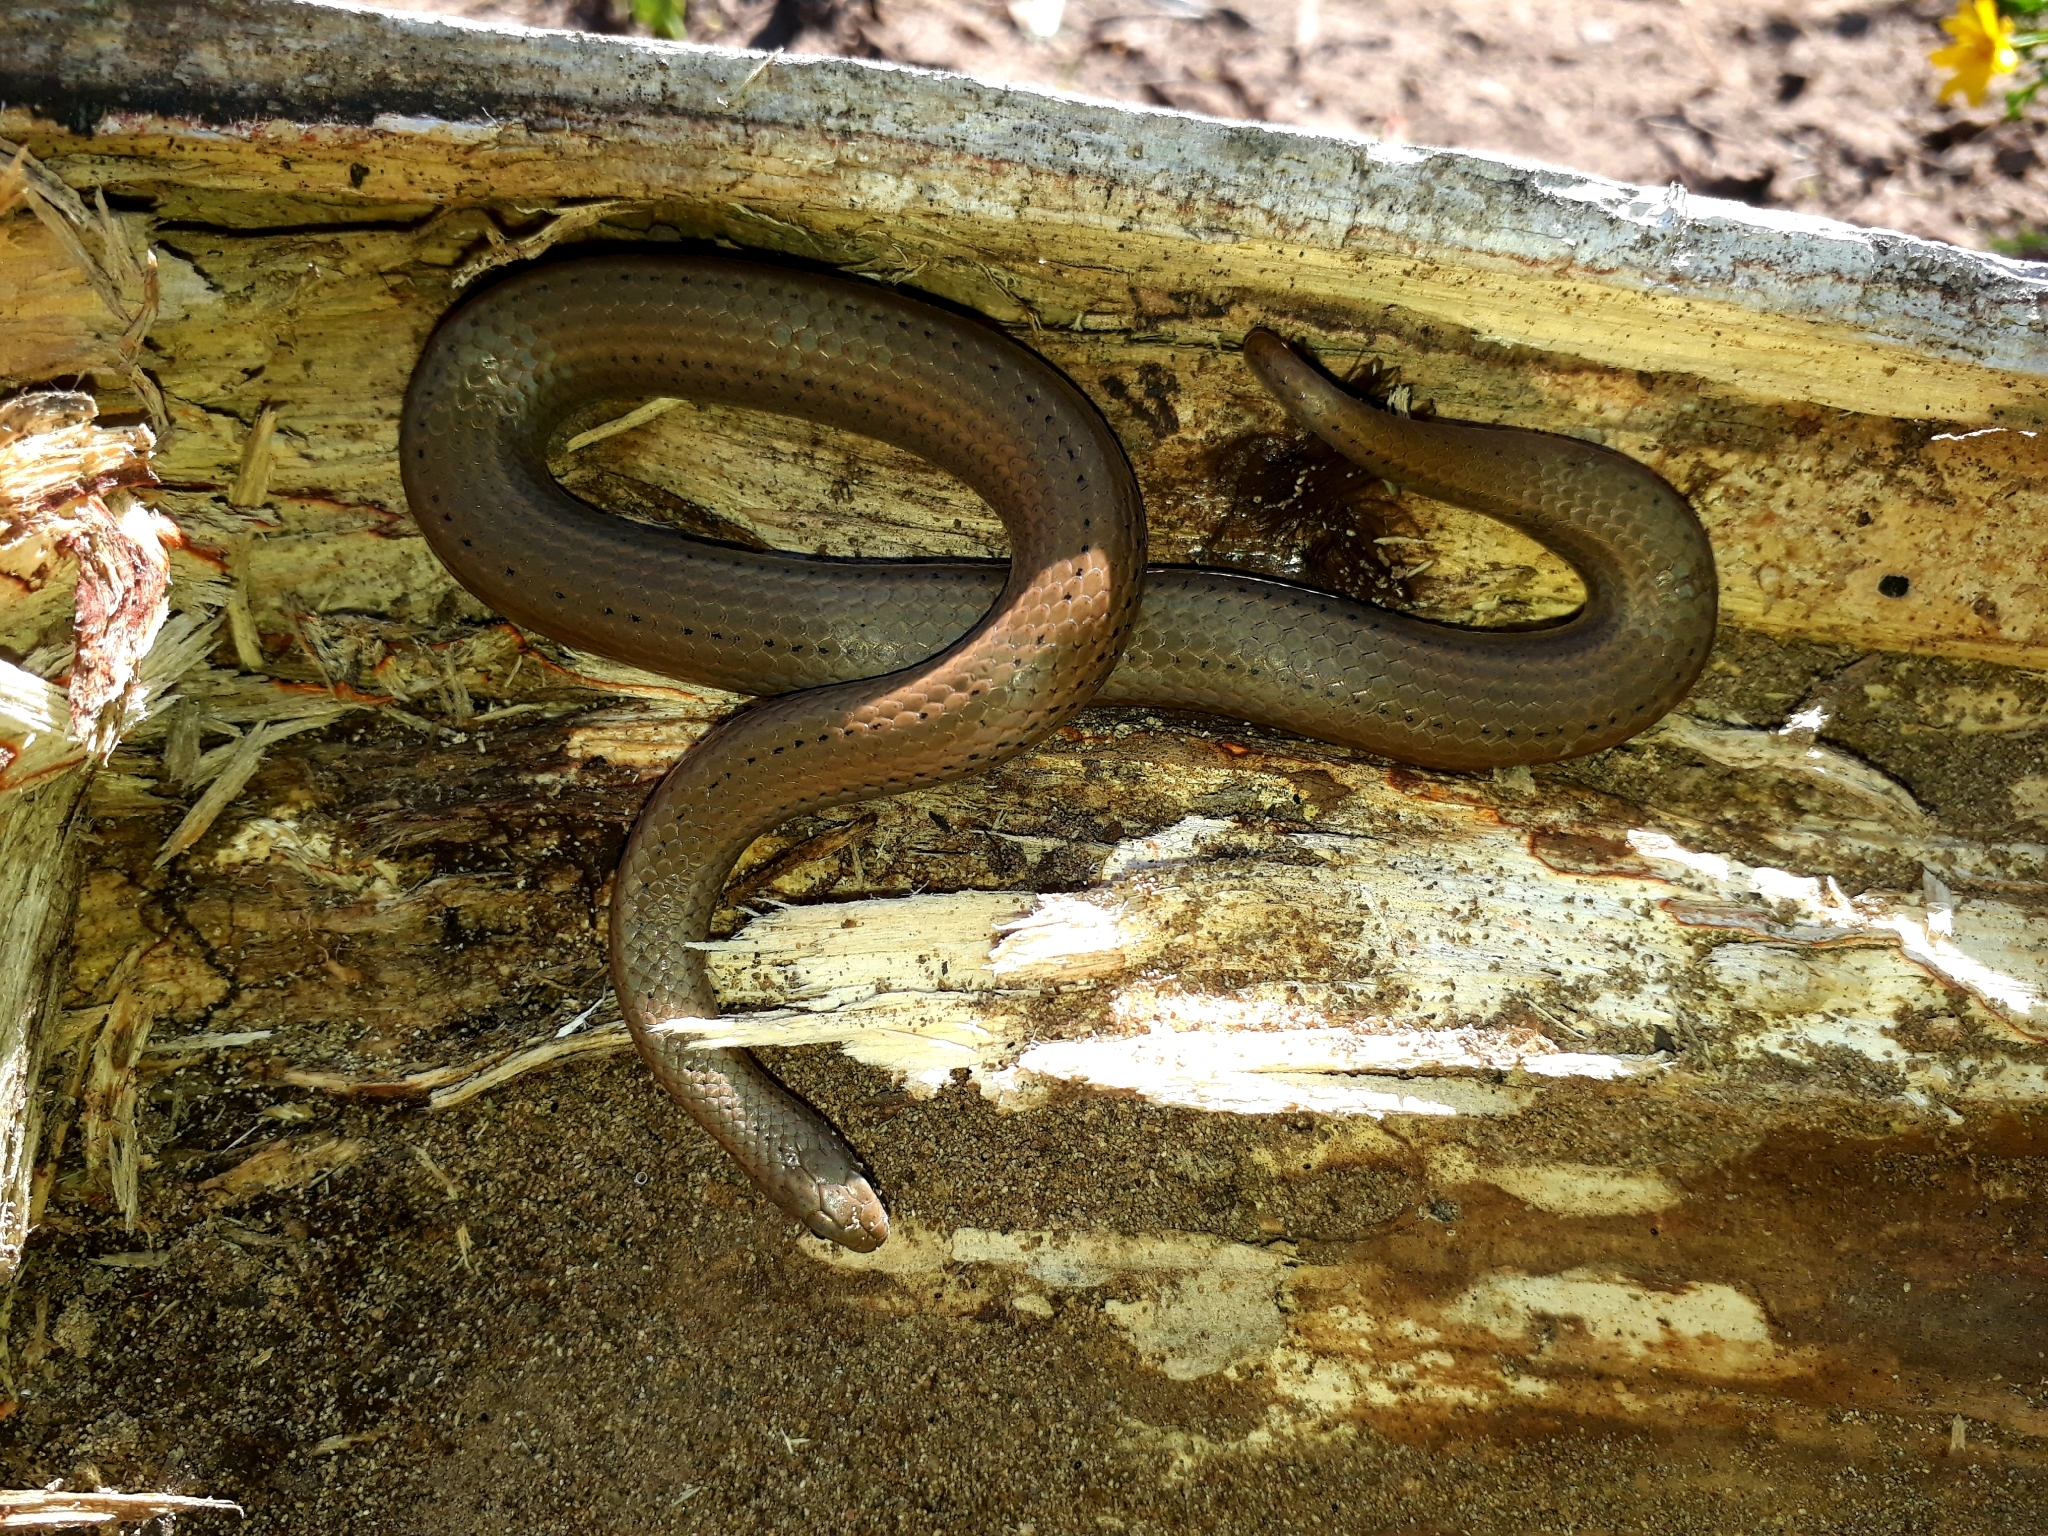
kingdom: Animalia
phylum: Chordata
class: Squamata
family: Pseudoxyrhophiidae
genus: Duberria
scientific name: Duberria lutrix
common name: Common slug eater
